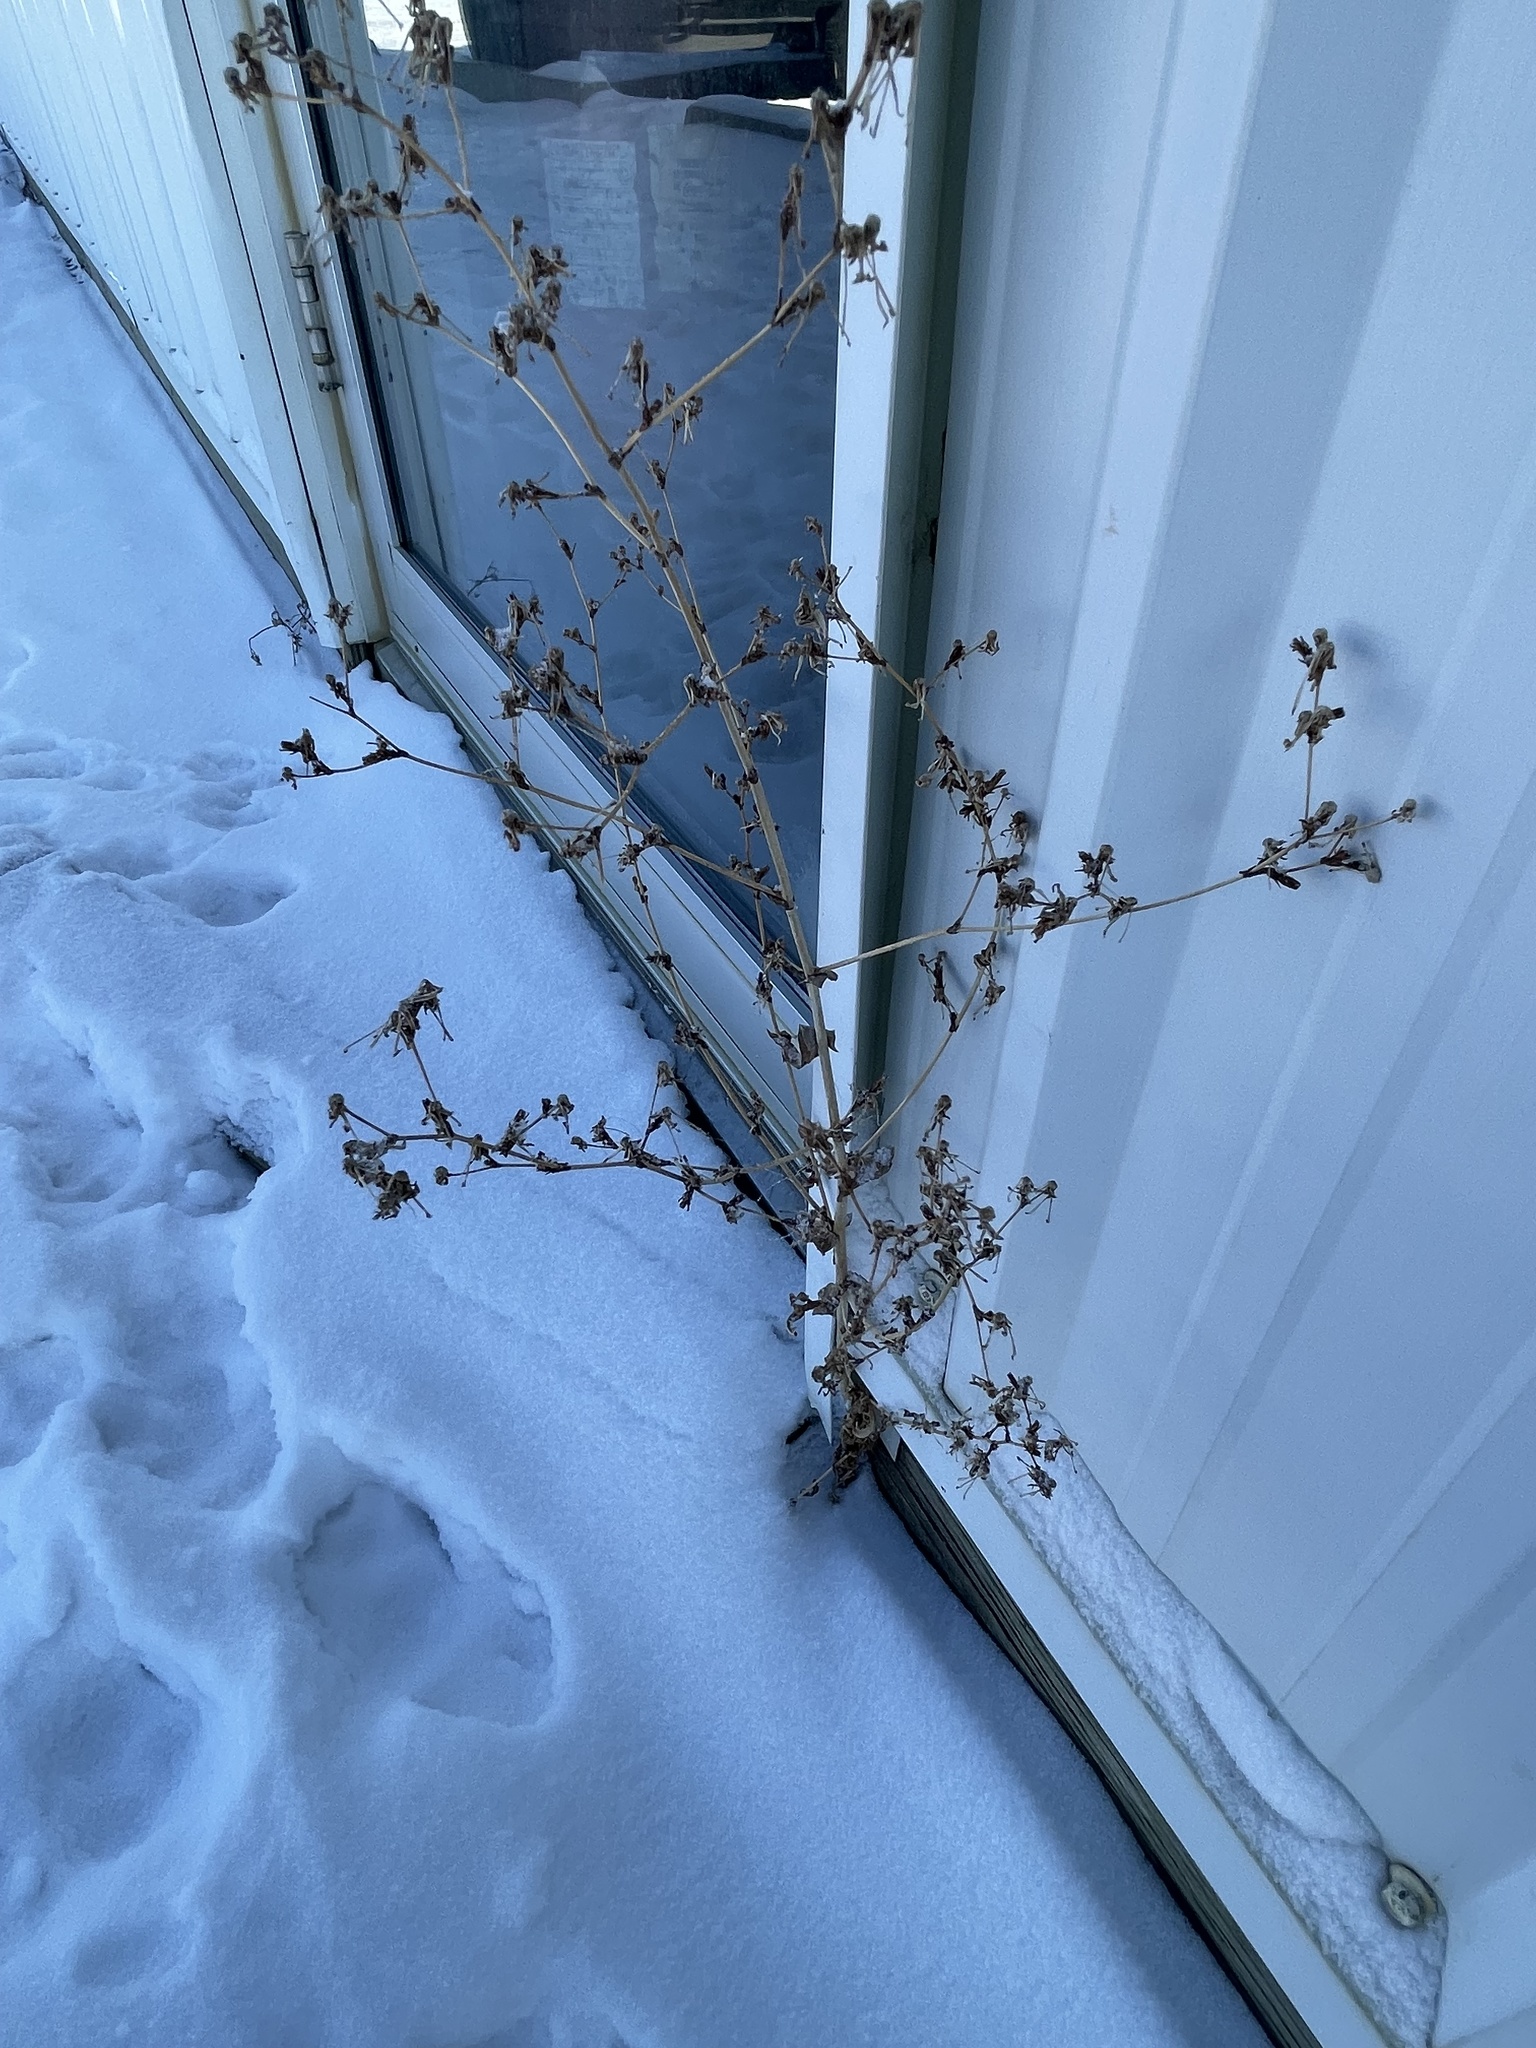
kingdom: Plantae
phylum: Tracheophyta
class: Magnoliopsida
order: Asterales
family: Asteraceae
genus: Lactuca
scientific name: Lactuca serriola
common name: Prickly lettuce
